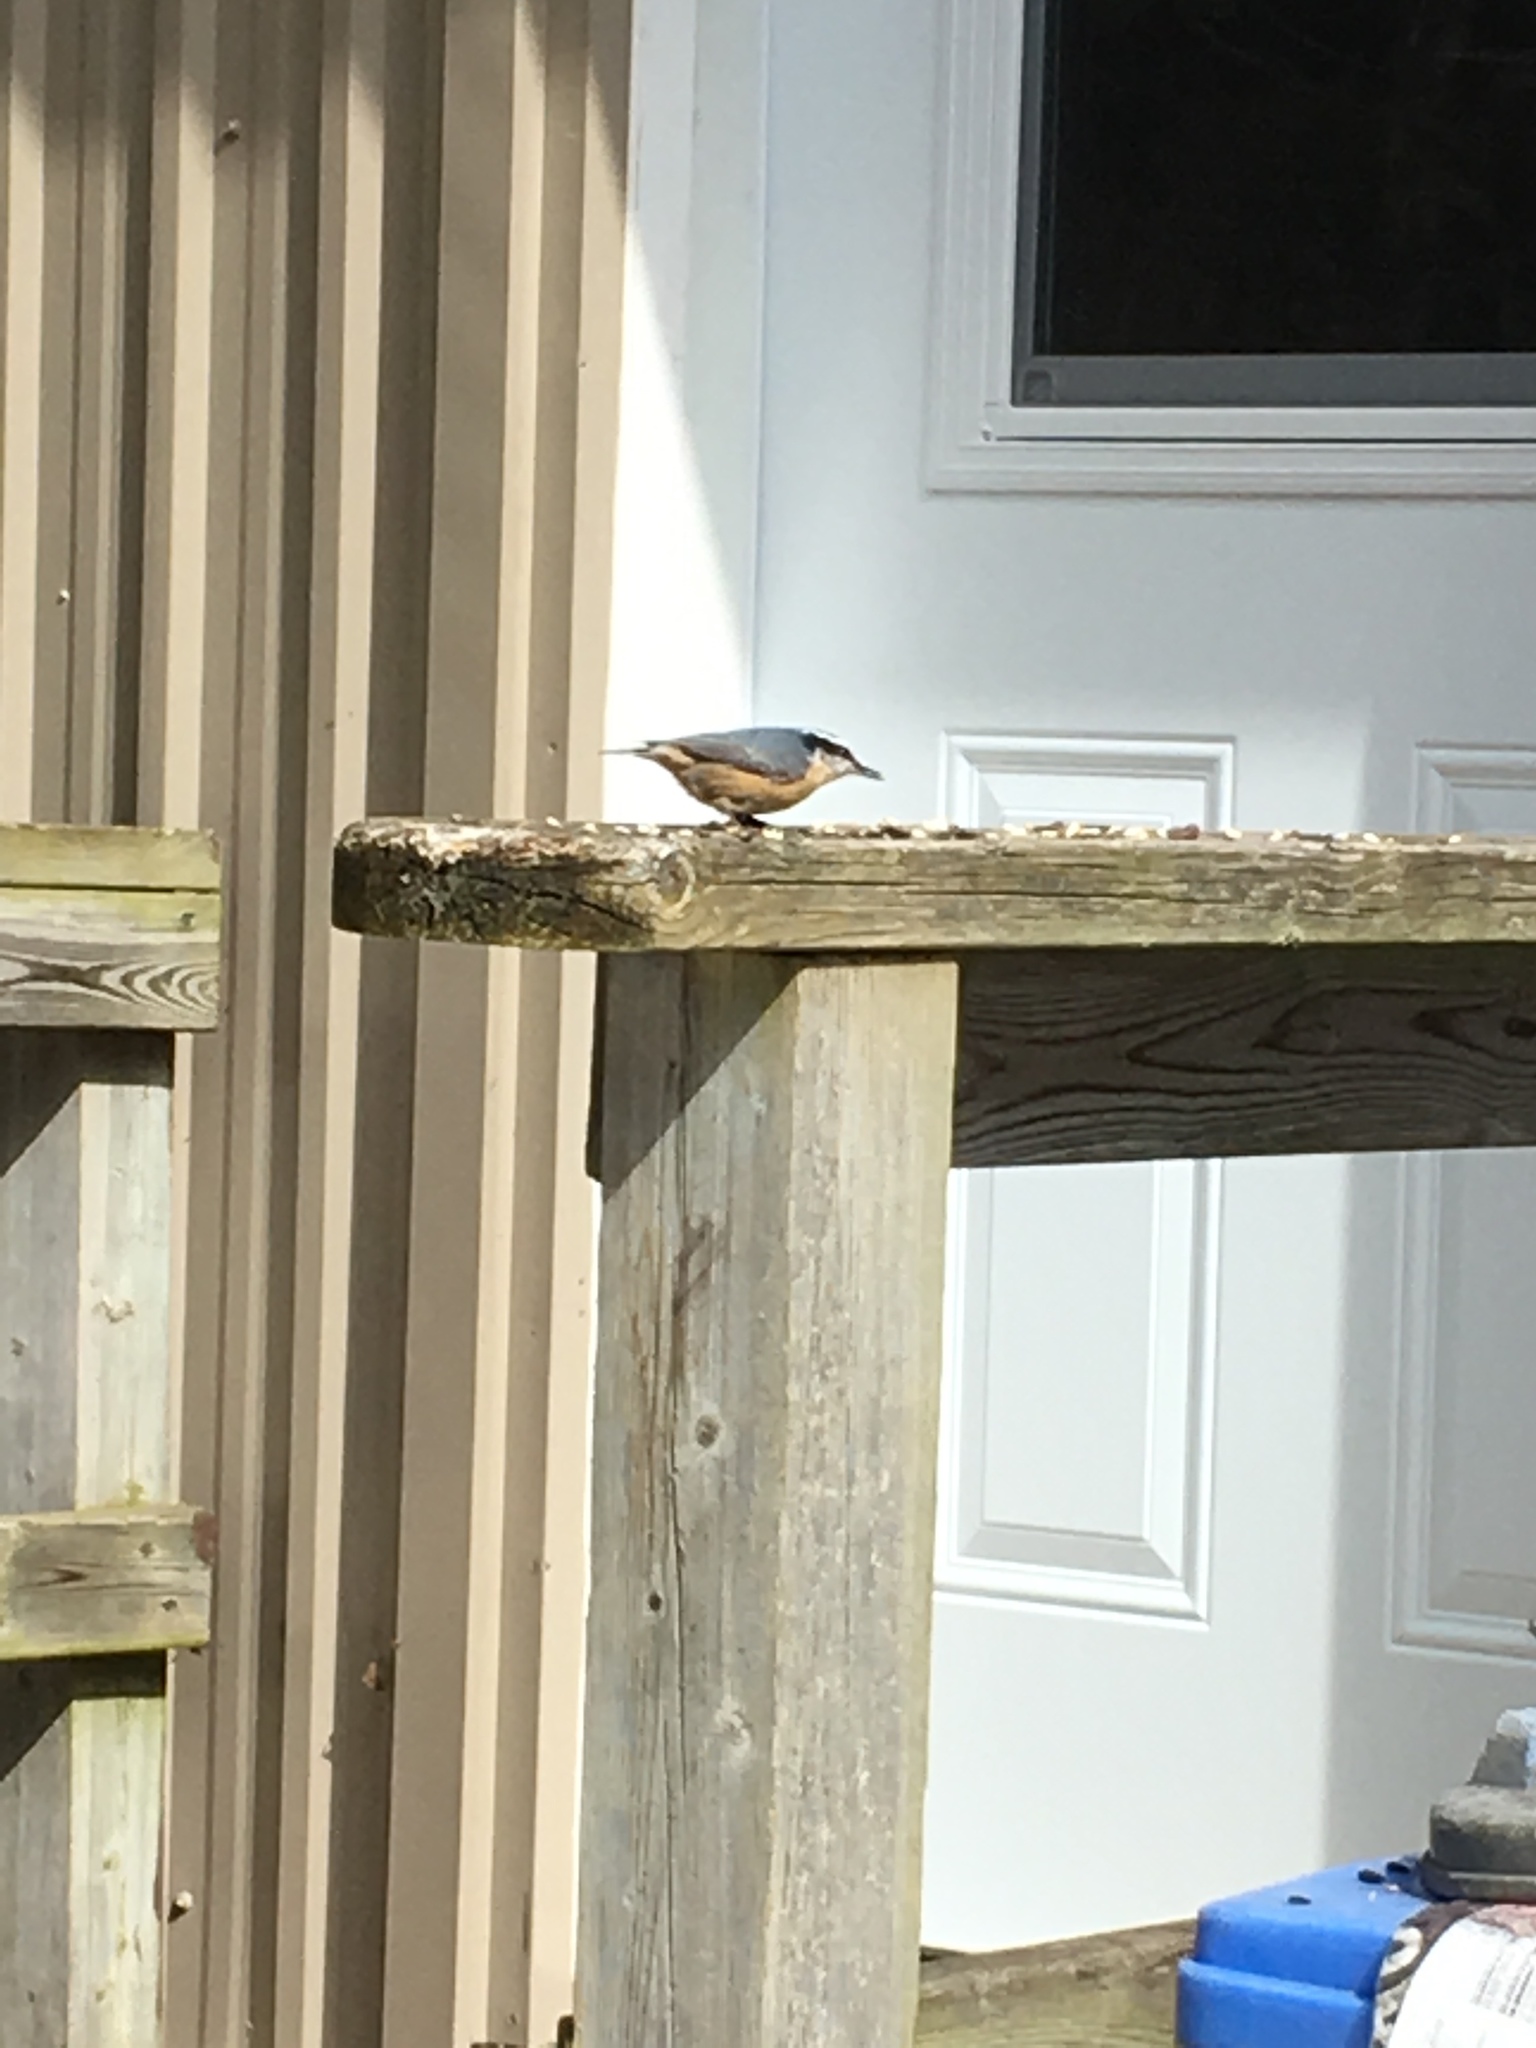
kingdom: Animalia
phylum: Chordata
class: Aves
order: Passeriformes
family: Sittidae
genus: Sitta
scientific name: Sitta canadensis
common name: Red-breasted nuthatch
